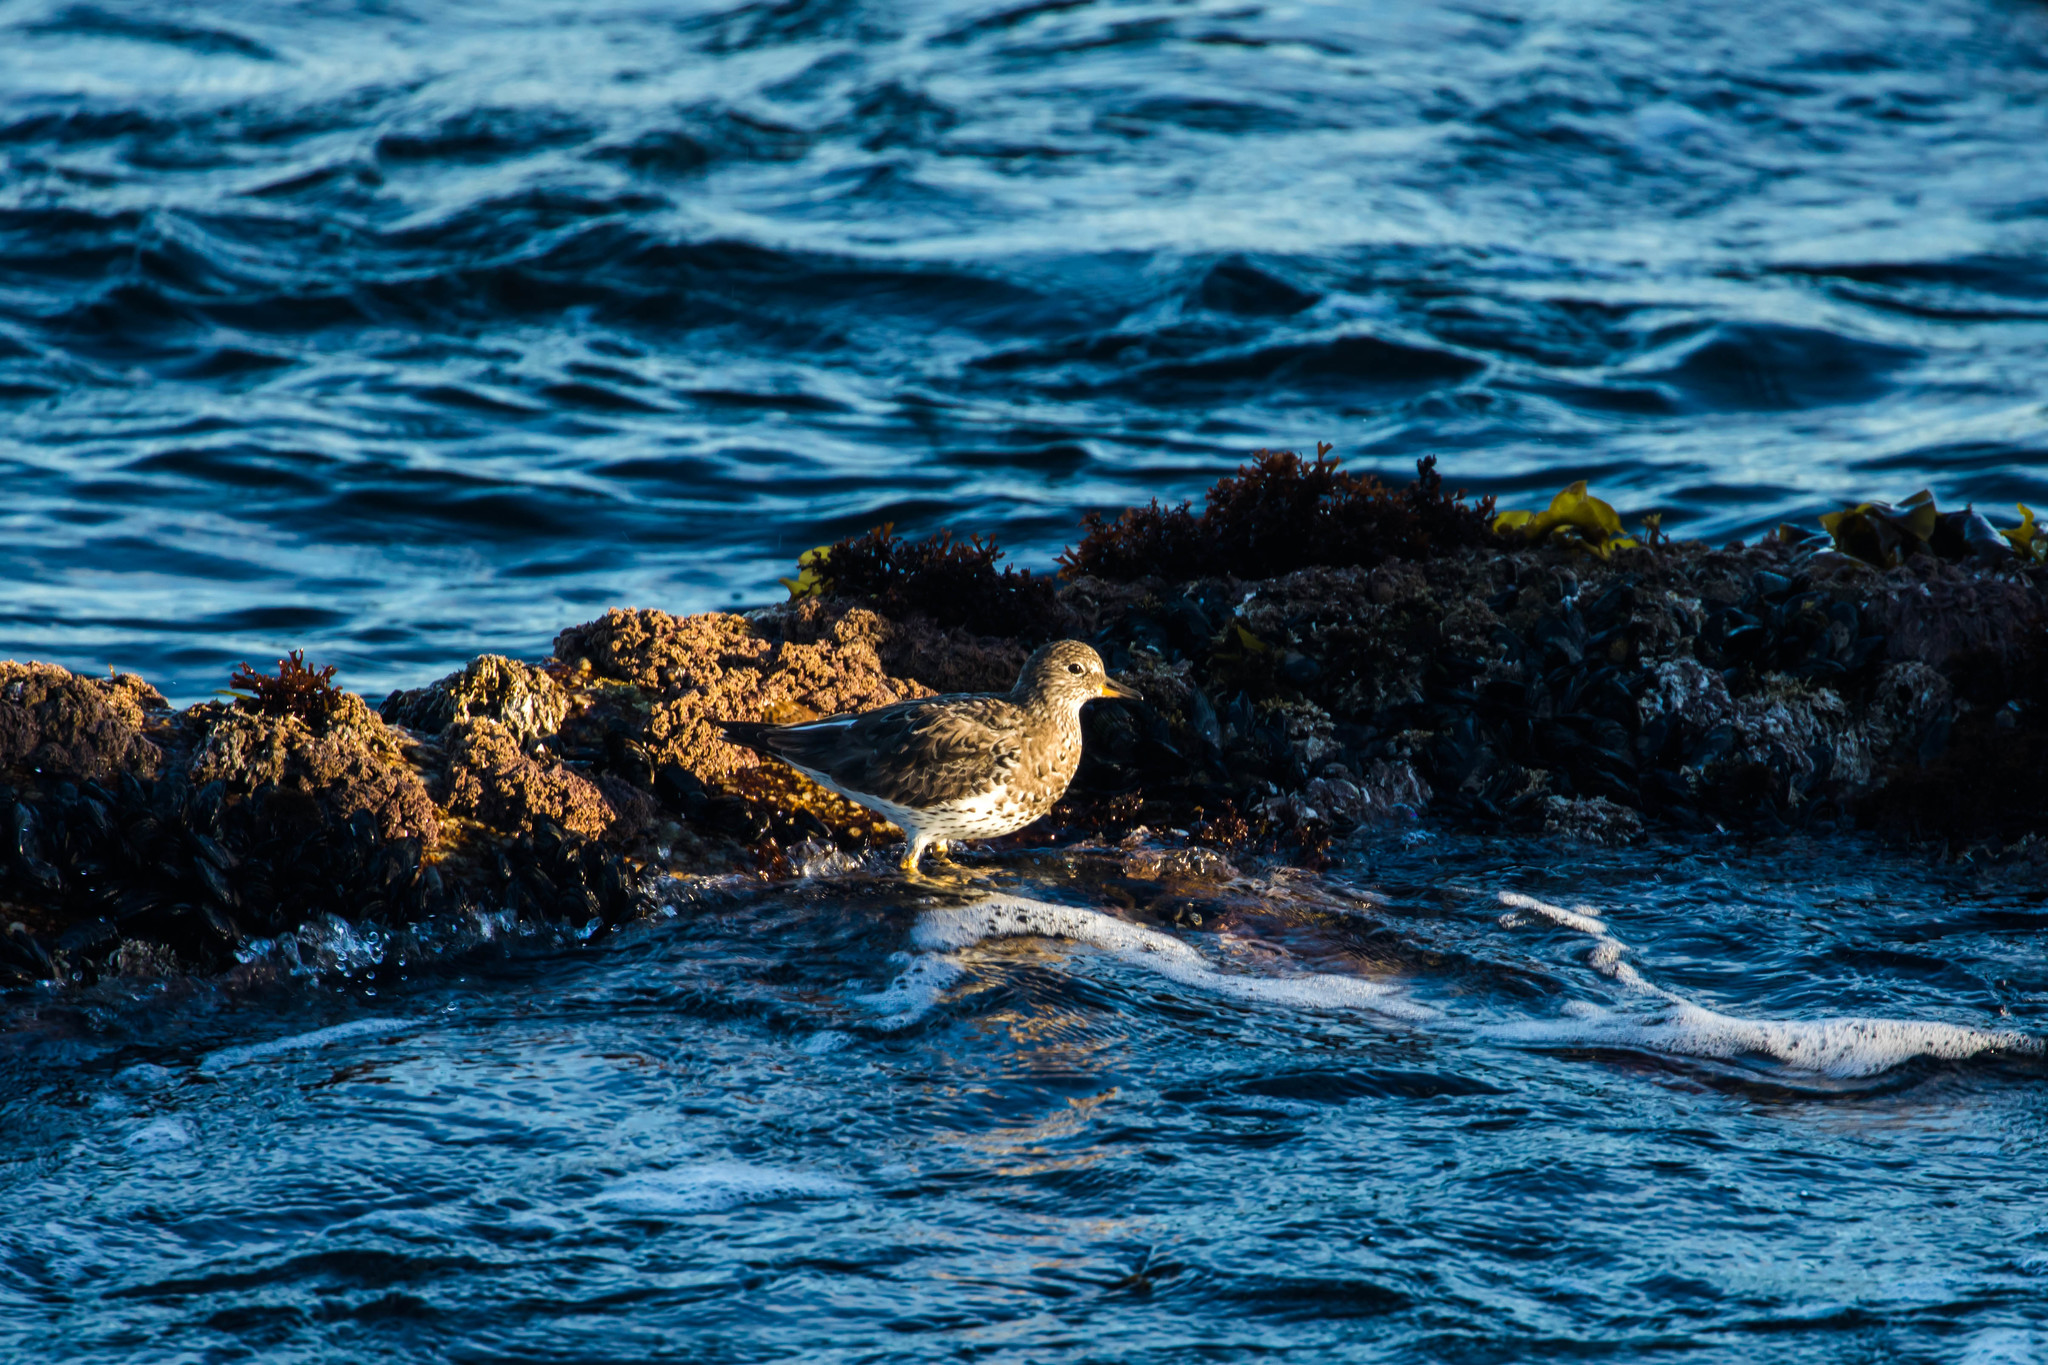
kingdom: Animalia
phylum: Chordata
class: Aves
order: Charadriiformes
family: Scolopacidae
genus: Calidris
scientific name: Calidris virgata
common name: Surfbird
